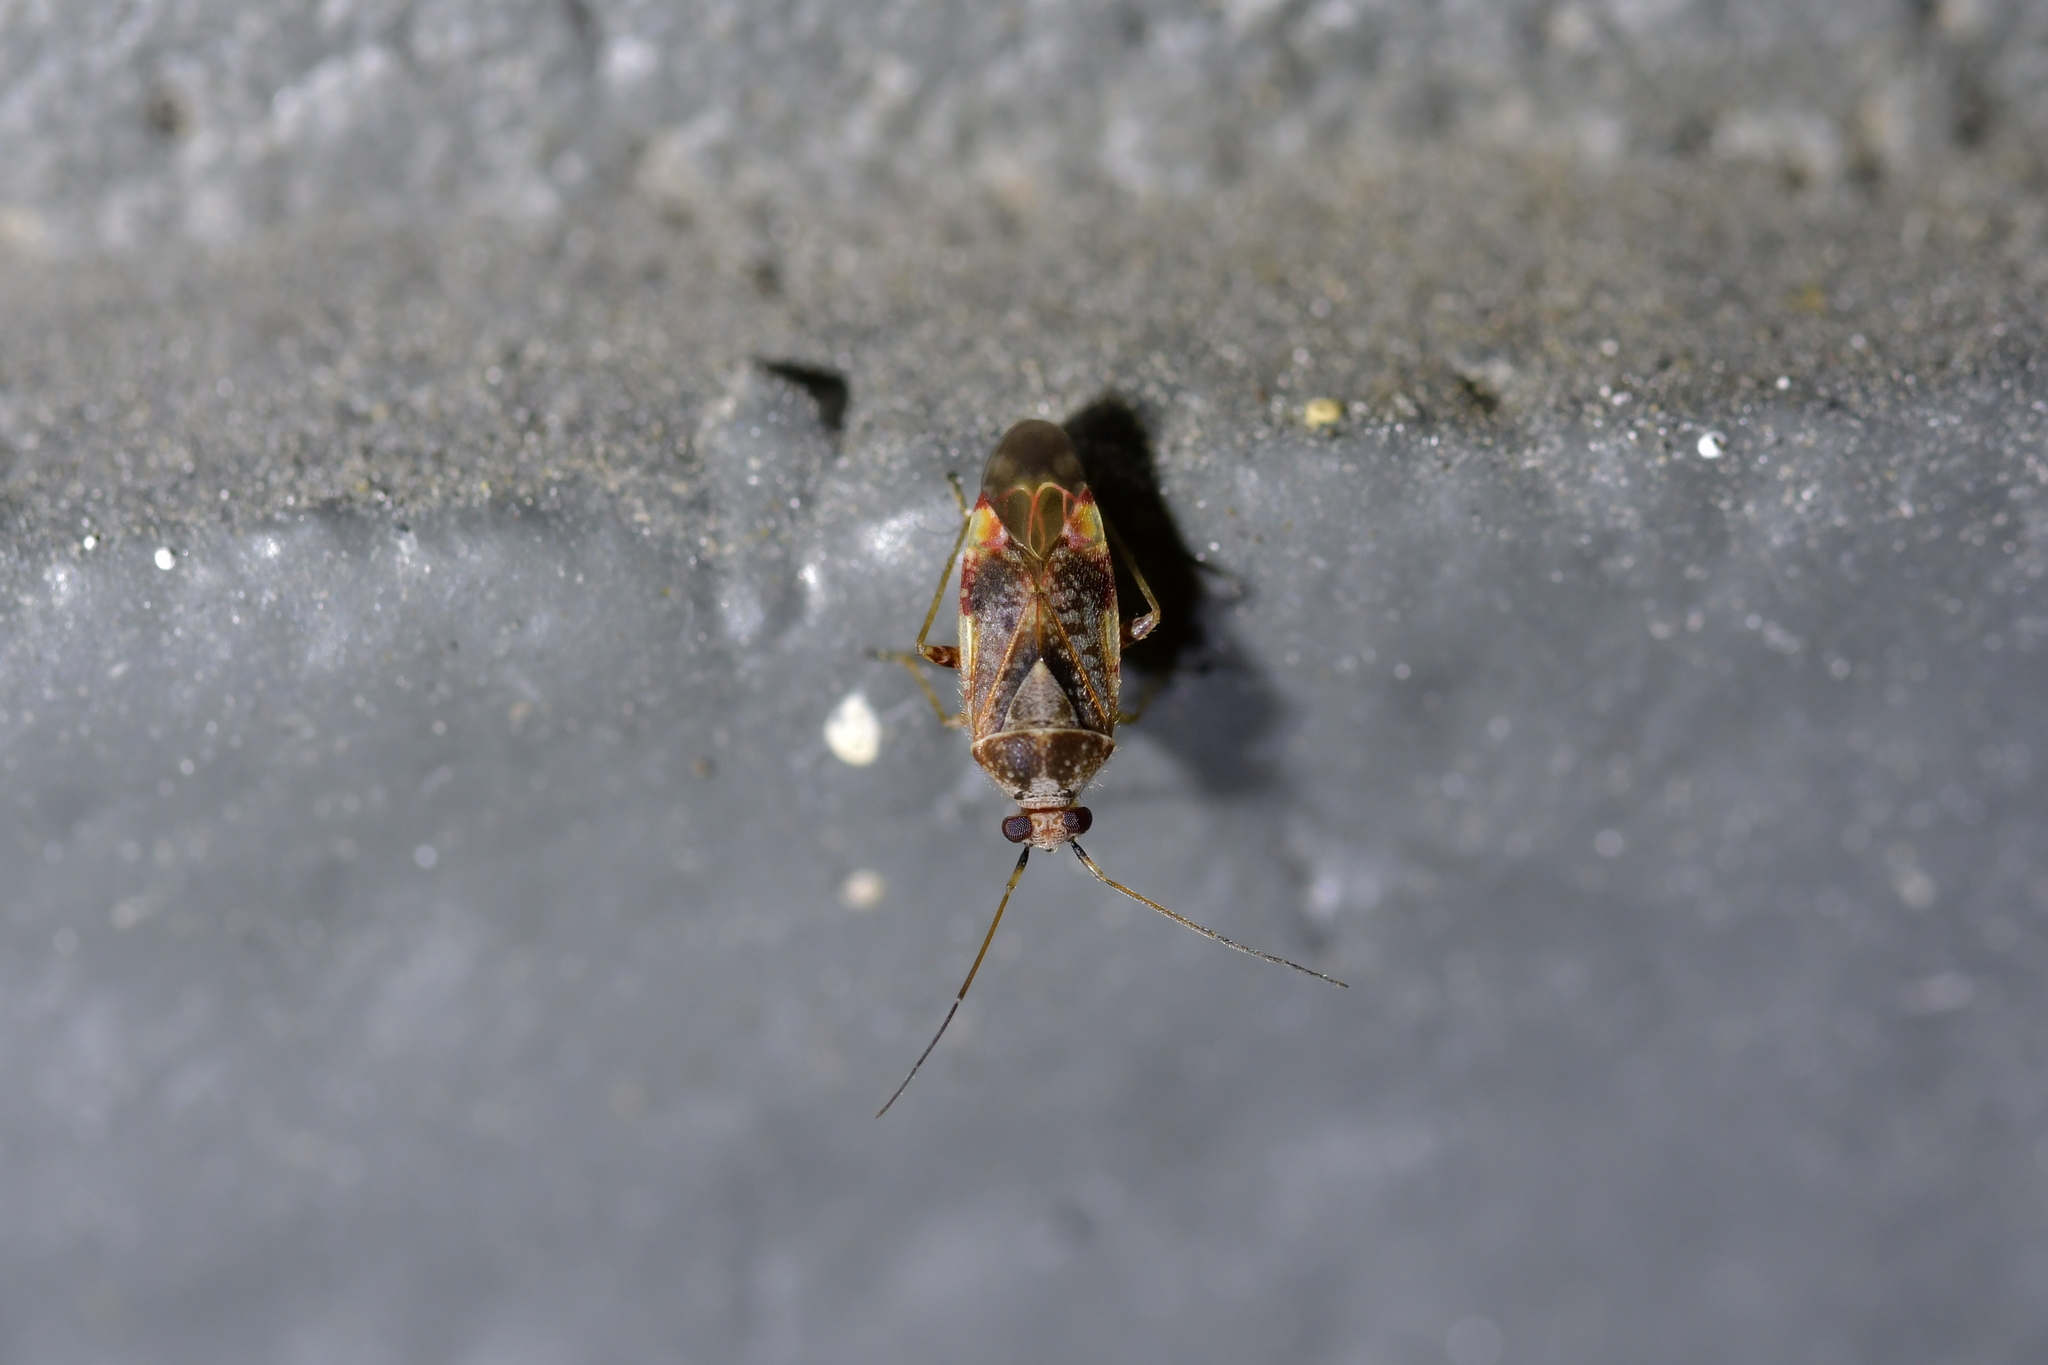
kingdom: Animalia
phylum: Arthropoda
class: Insecta
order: Hemiptera
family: Miridae
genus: Tinginotum
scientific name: Tinginotum minutum
